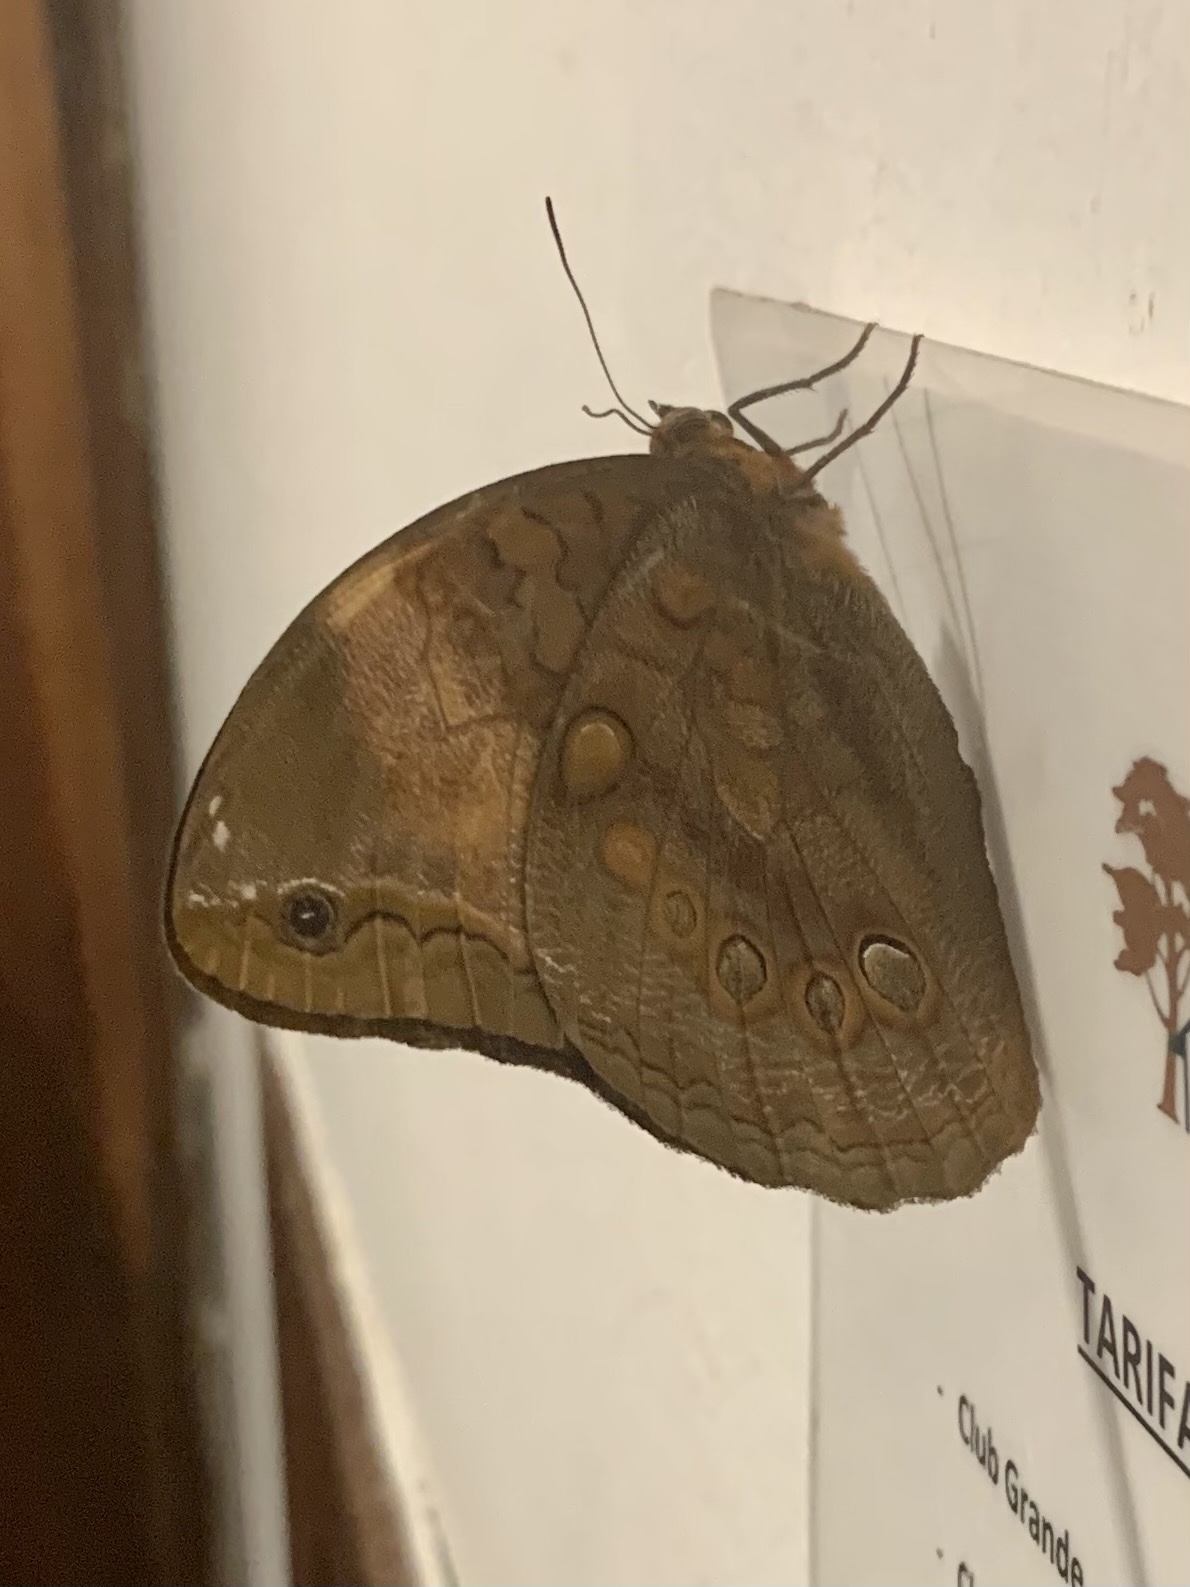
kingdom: Animalia
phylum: Arthropoda
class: Insecta
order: Lepidoptera
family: Nymphalidae
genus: Catoblepia
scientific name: Catoblepia berecynthia
